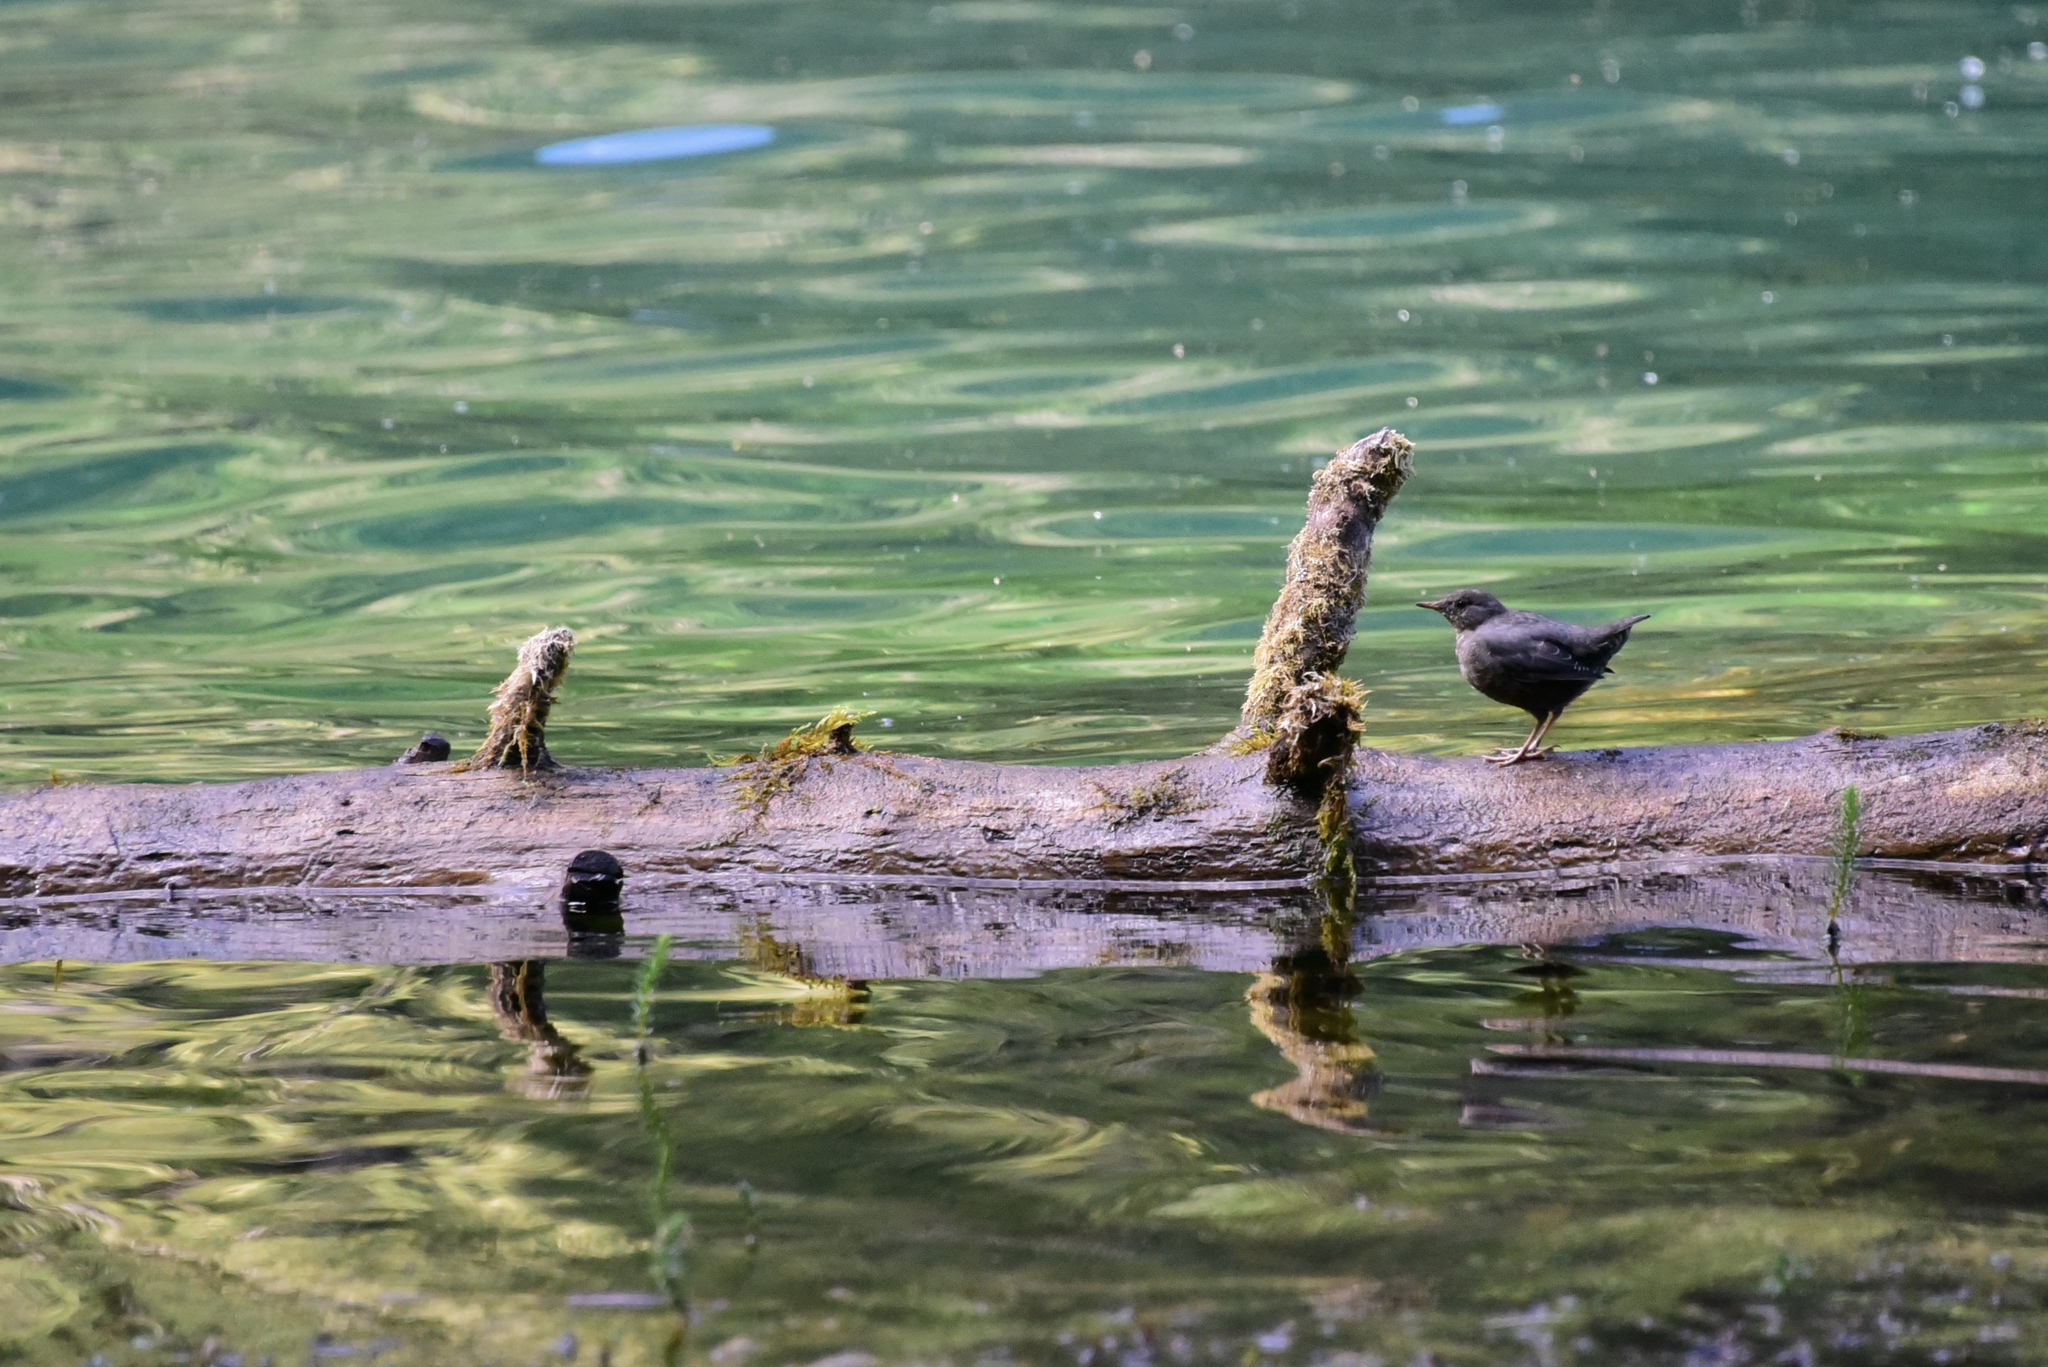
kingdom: Animalia
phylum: Chordata
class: Aves
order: Passeriformes
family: Cinclidae
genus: Cinclus
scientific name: Cinclus mexicanus
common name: American dipper
